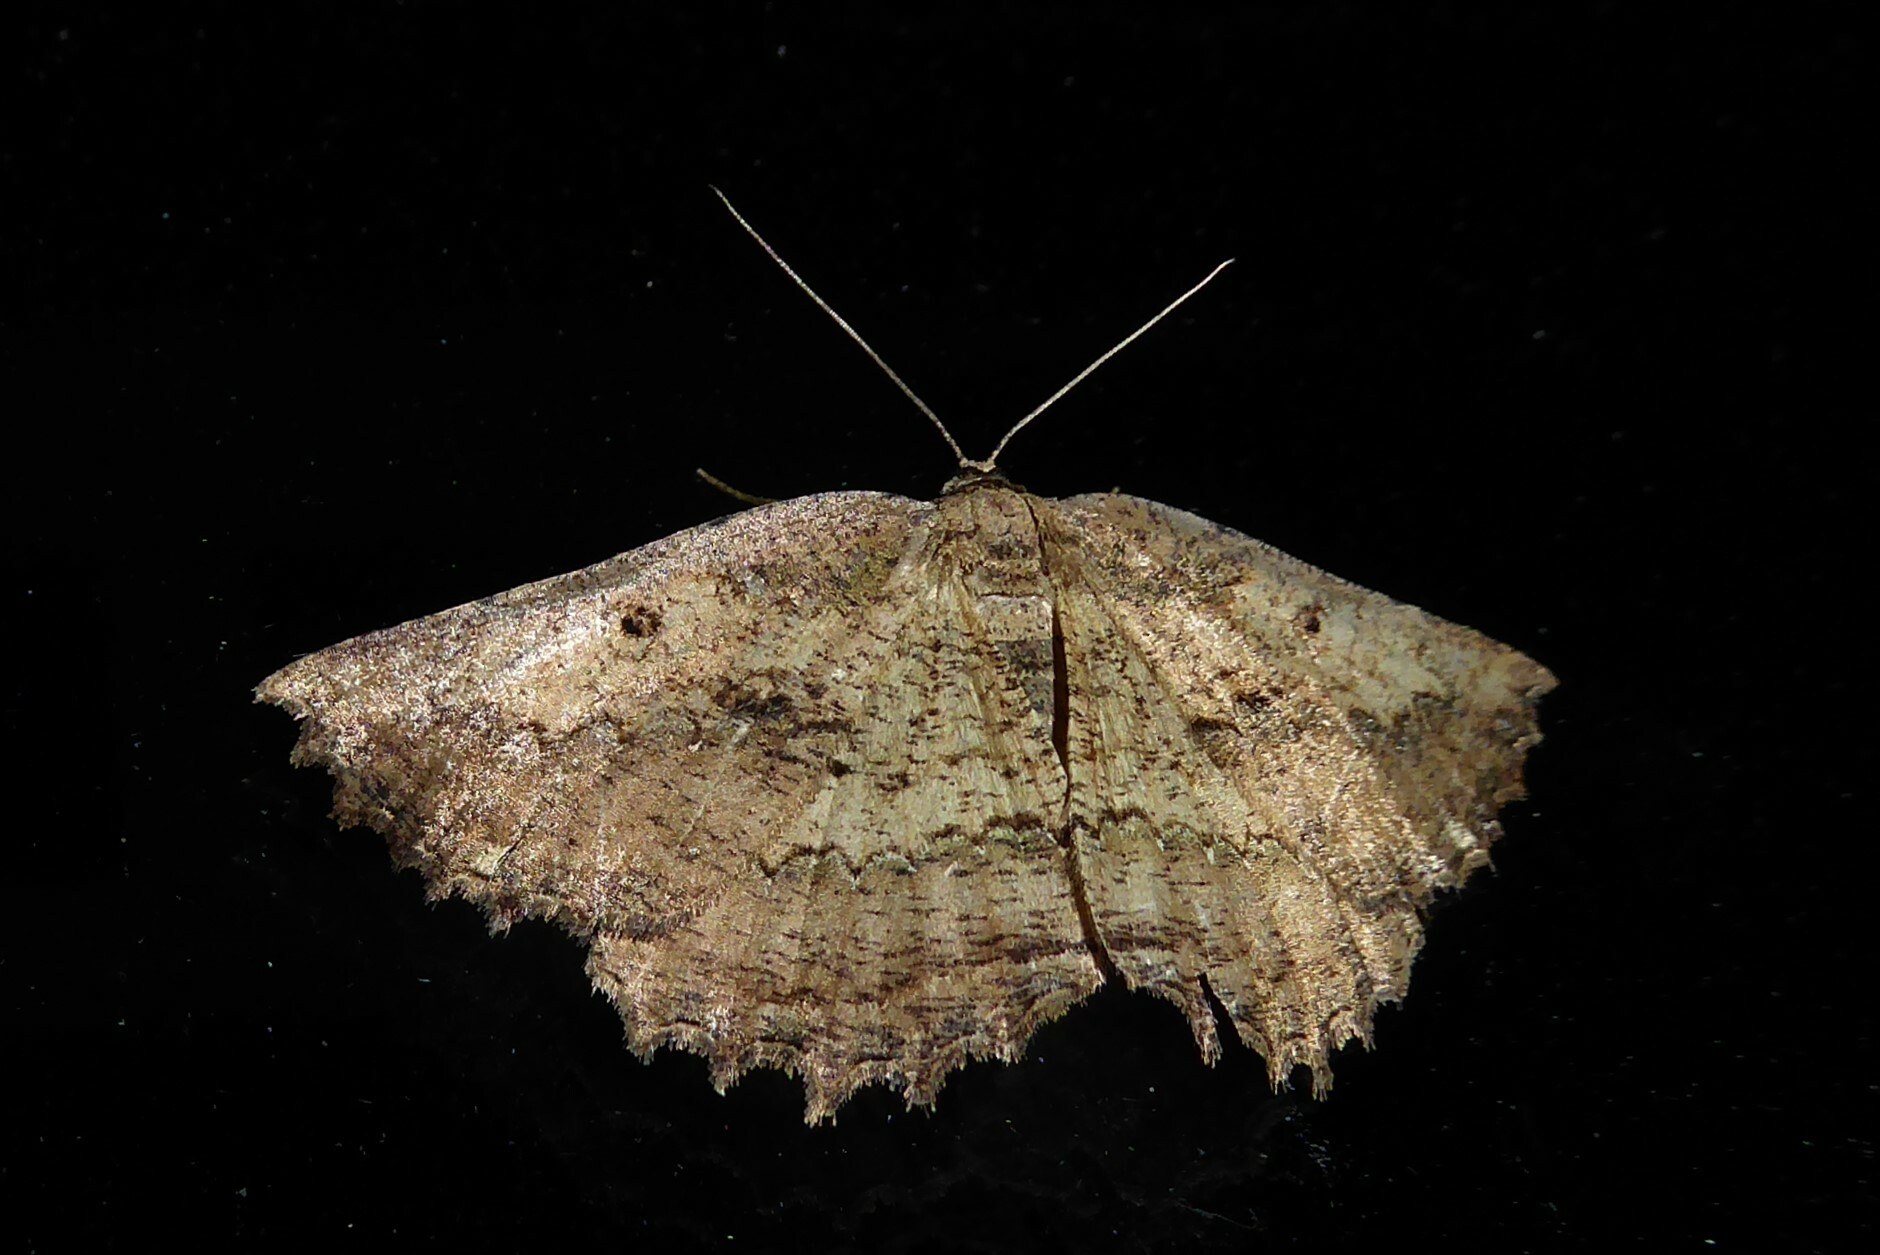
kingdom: Animalia
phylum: Arthropoda
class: Insecta
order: Lepidoptera
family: Geometridae
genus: Gellonia
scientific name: Gellonia pannularia
